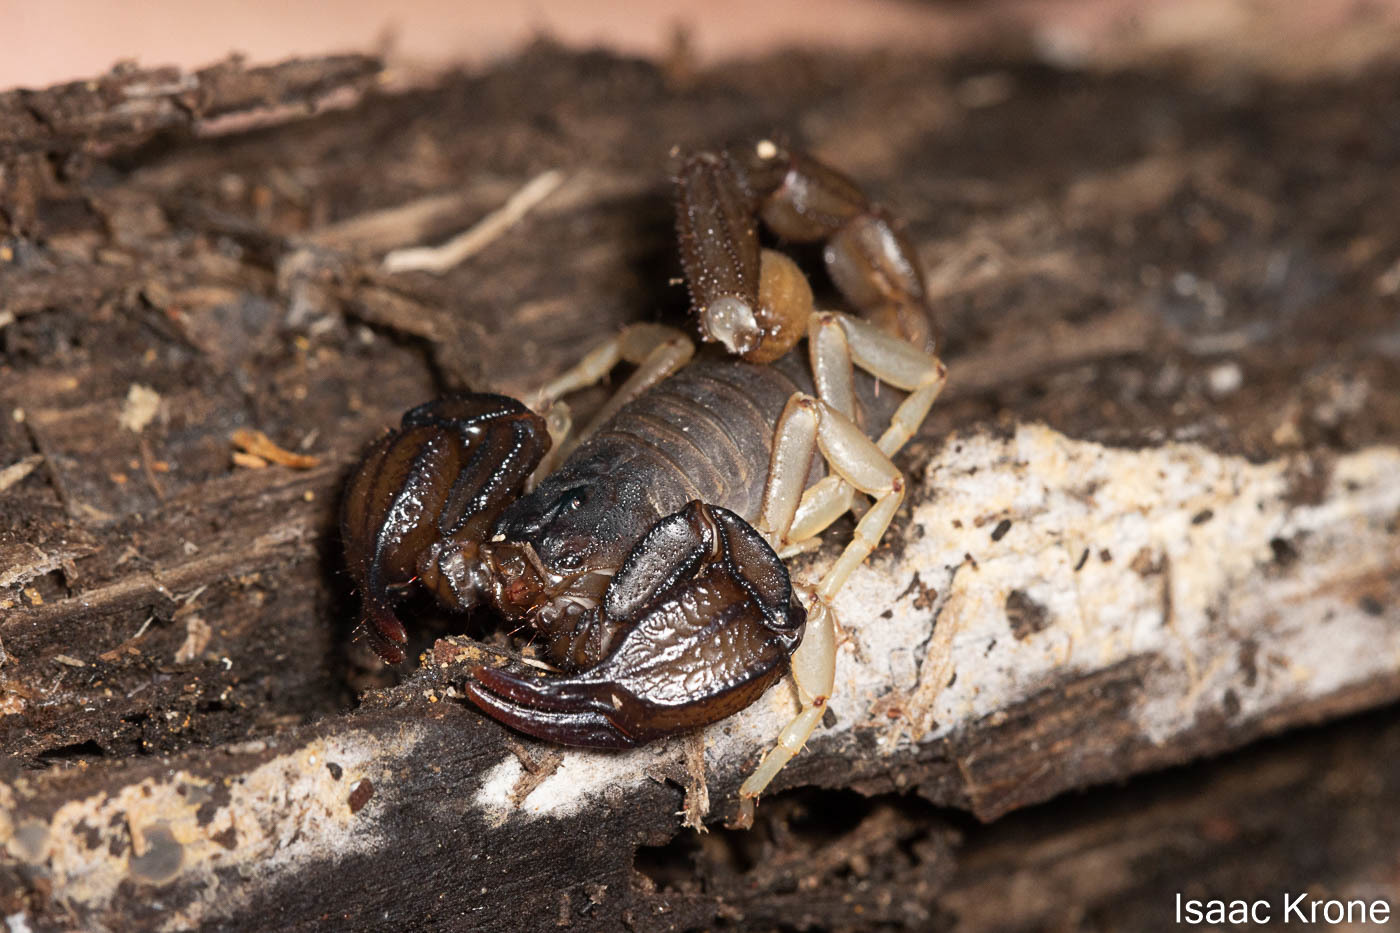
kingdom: Animalia
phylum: Arthropoda
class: Arachnida
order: Scorpiones
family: Chactidae
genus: Uroctonus
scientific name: Uroctonus mordax
